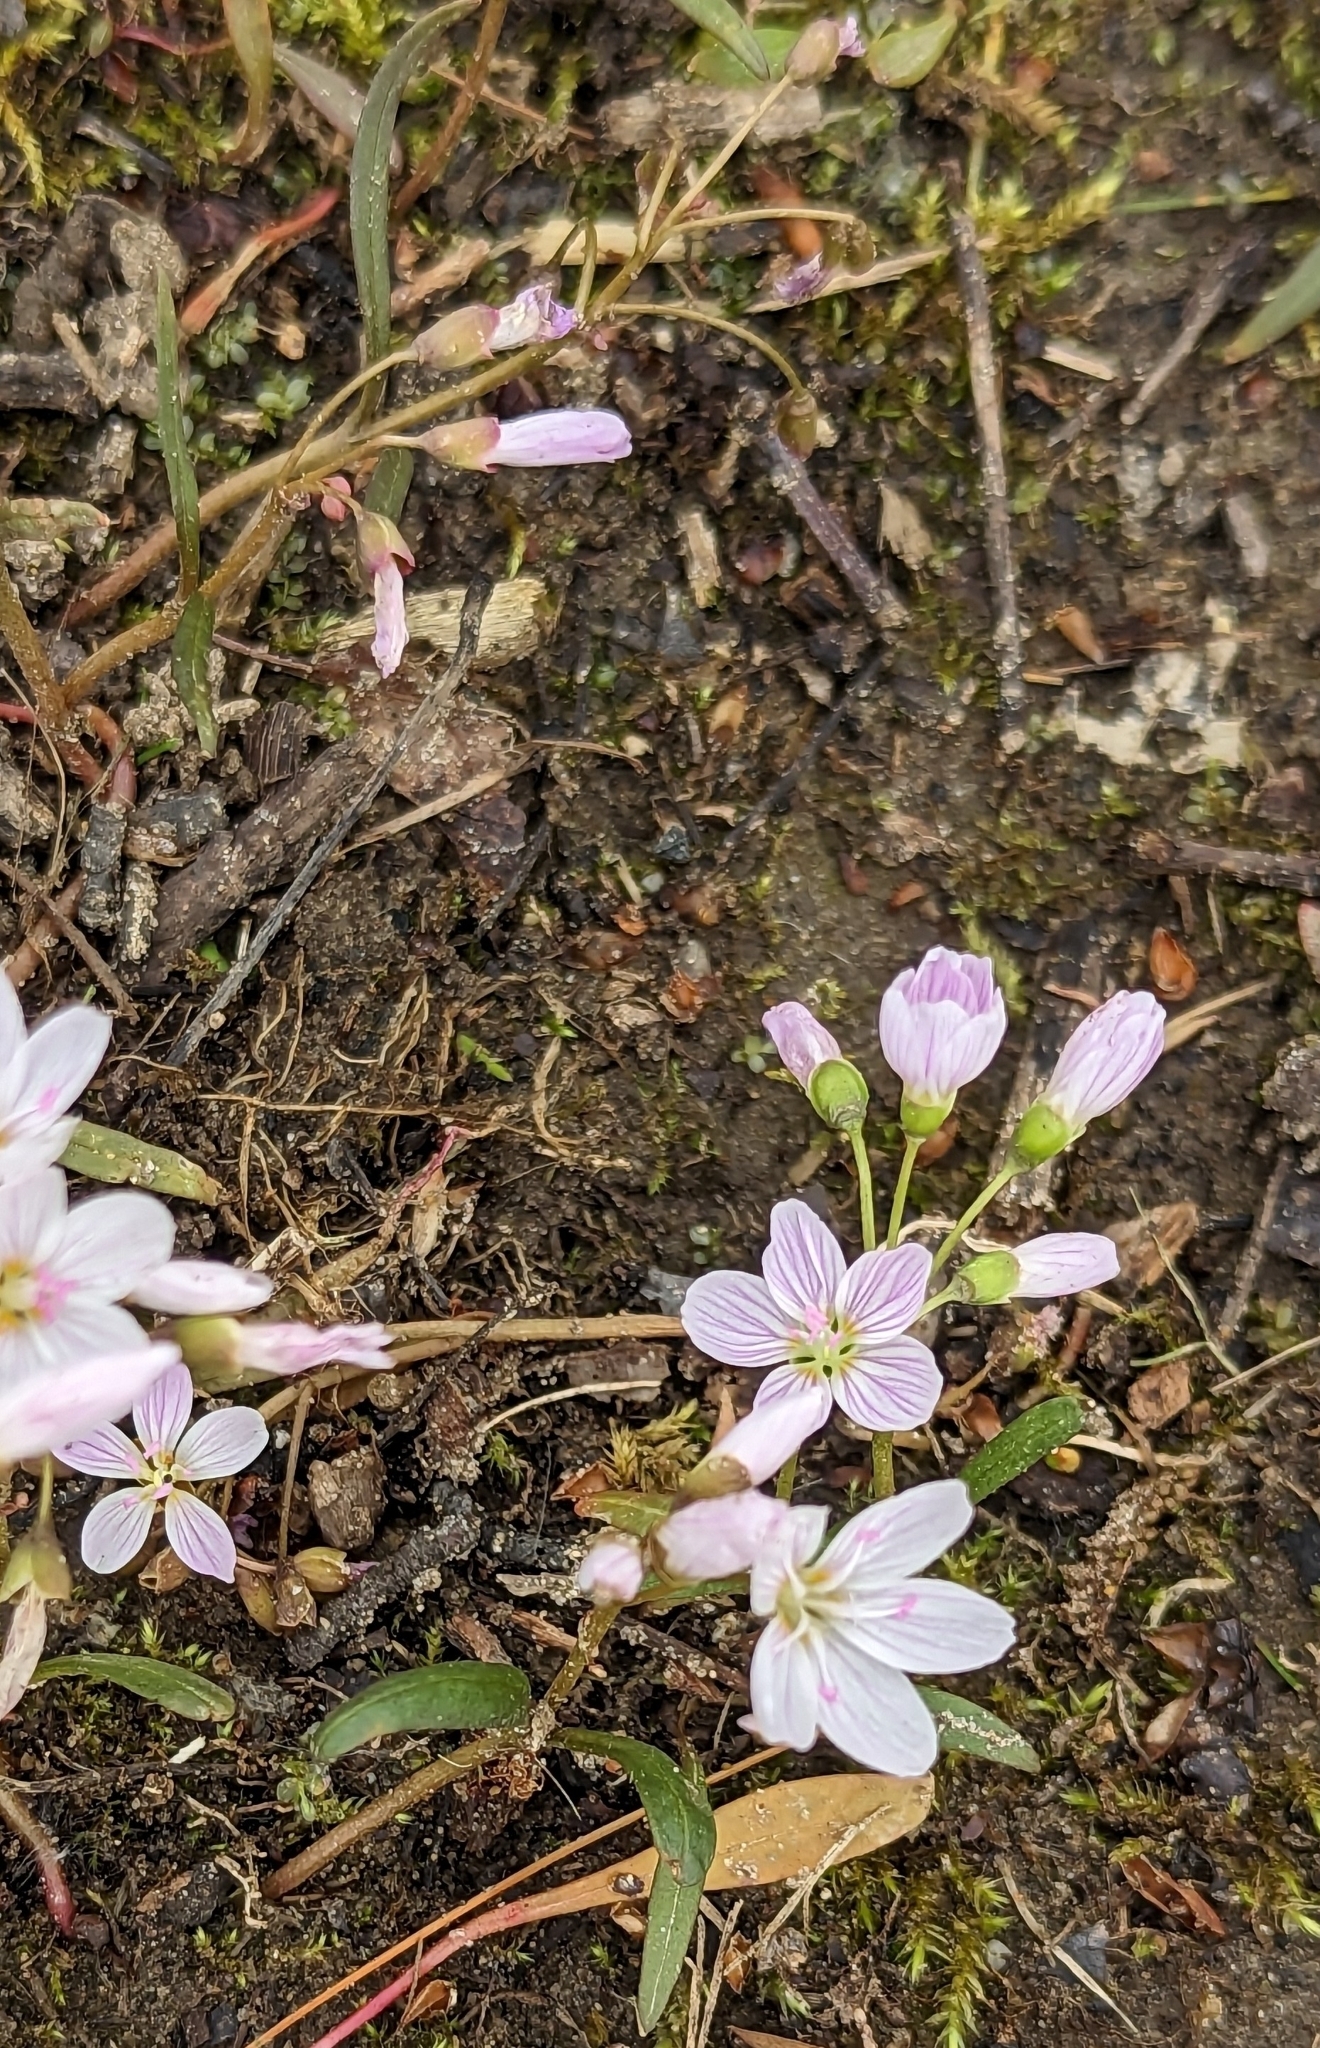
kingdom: Plantae
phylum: Tracheophyta
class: Magnoliopsida
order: Caryophyllales
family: Montiaceae
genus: Claytonia
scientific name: Claytonia virginica
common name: Virginia springbeauty
